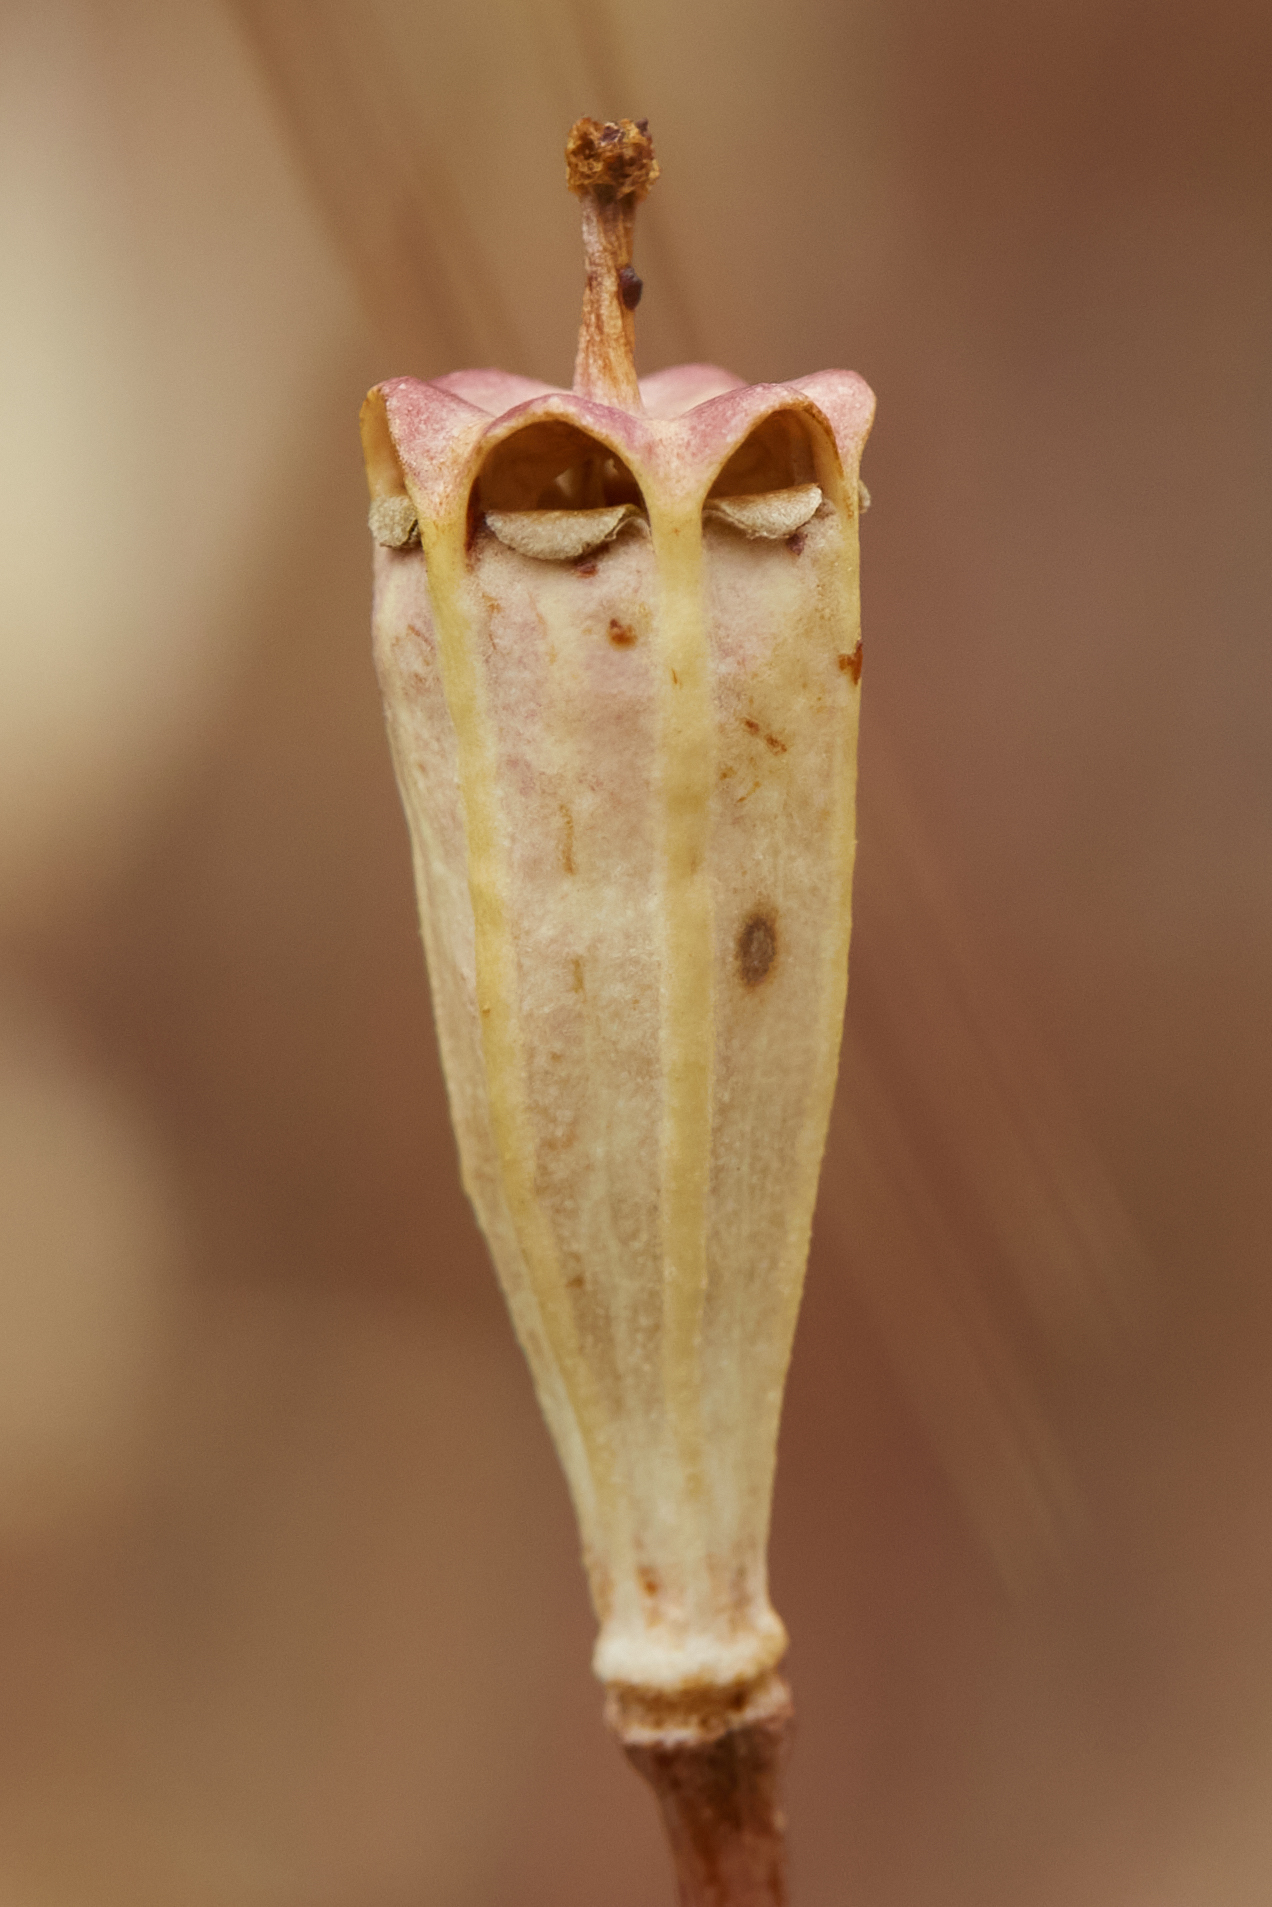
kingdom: Plantae
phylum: Tracheophyta
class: Magnoliopsida
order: Ranunculales
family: Papaveraceae
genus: Stylomecon
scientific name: Stylomecon heterophylla
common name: Flaming-poppy
